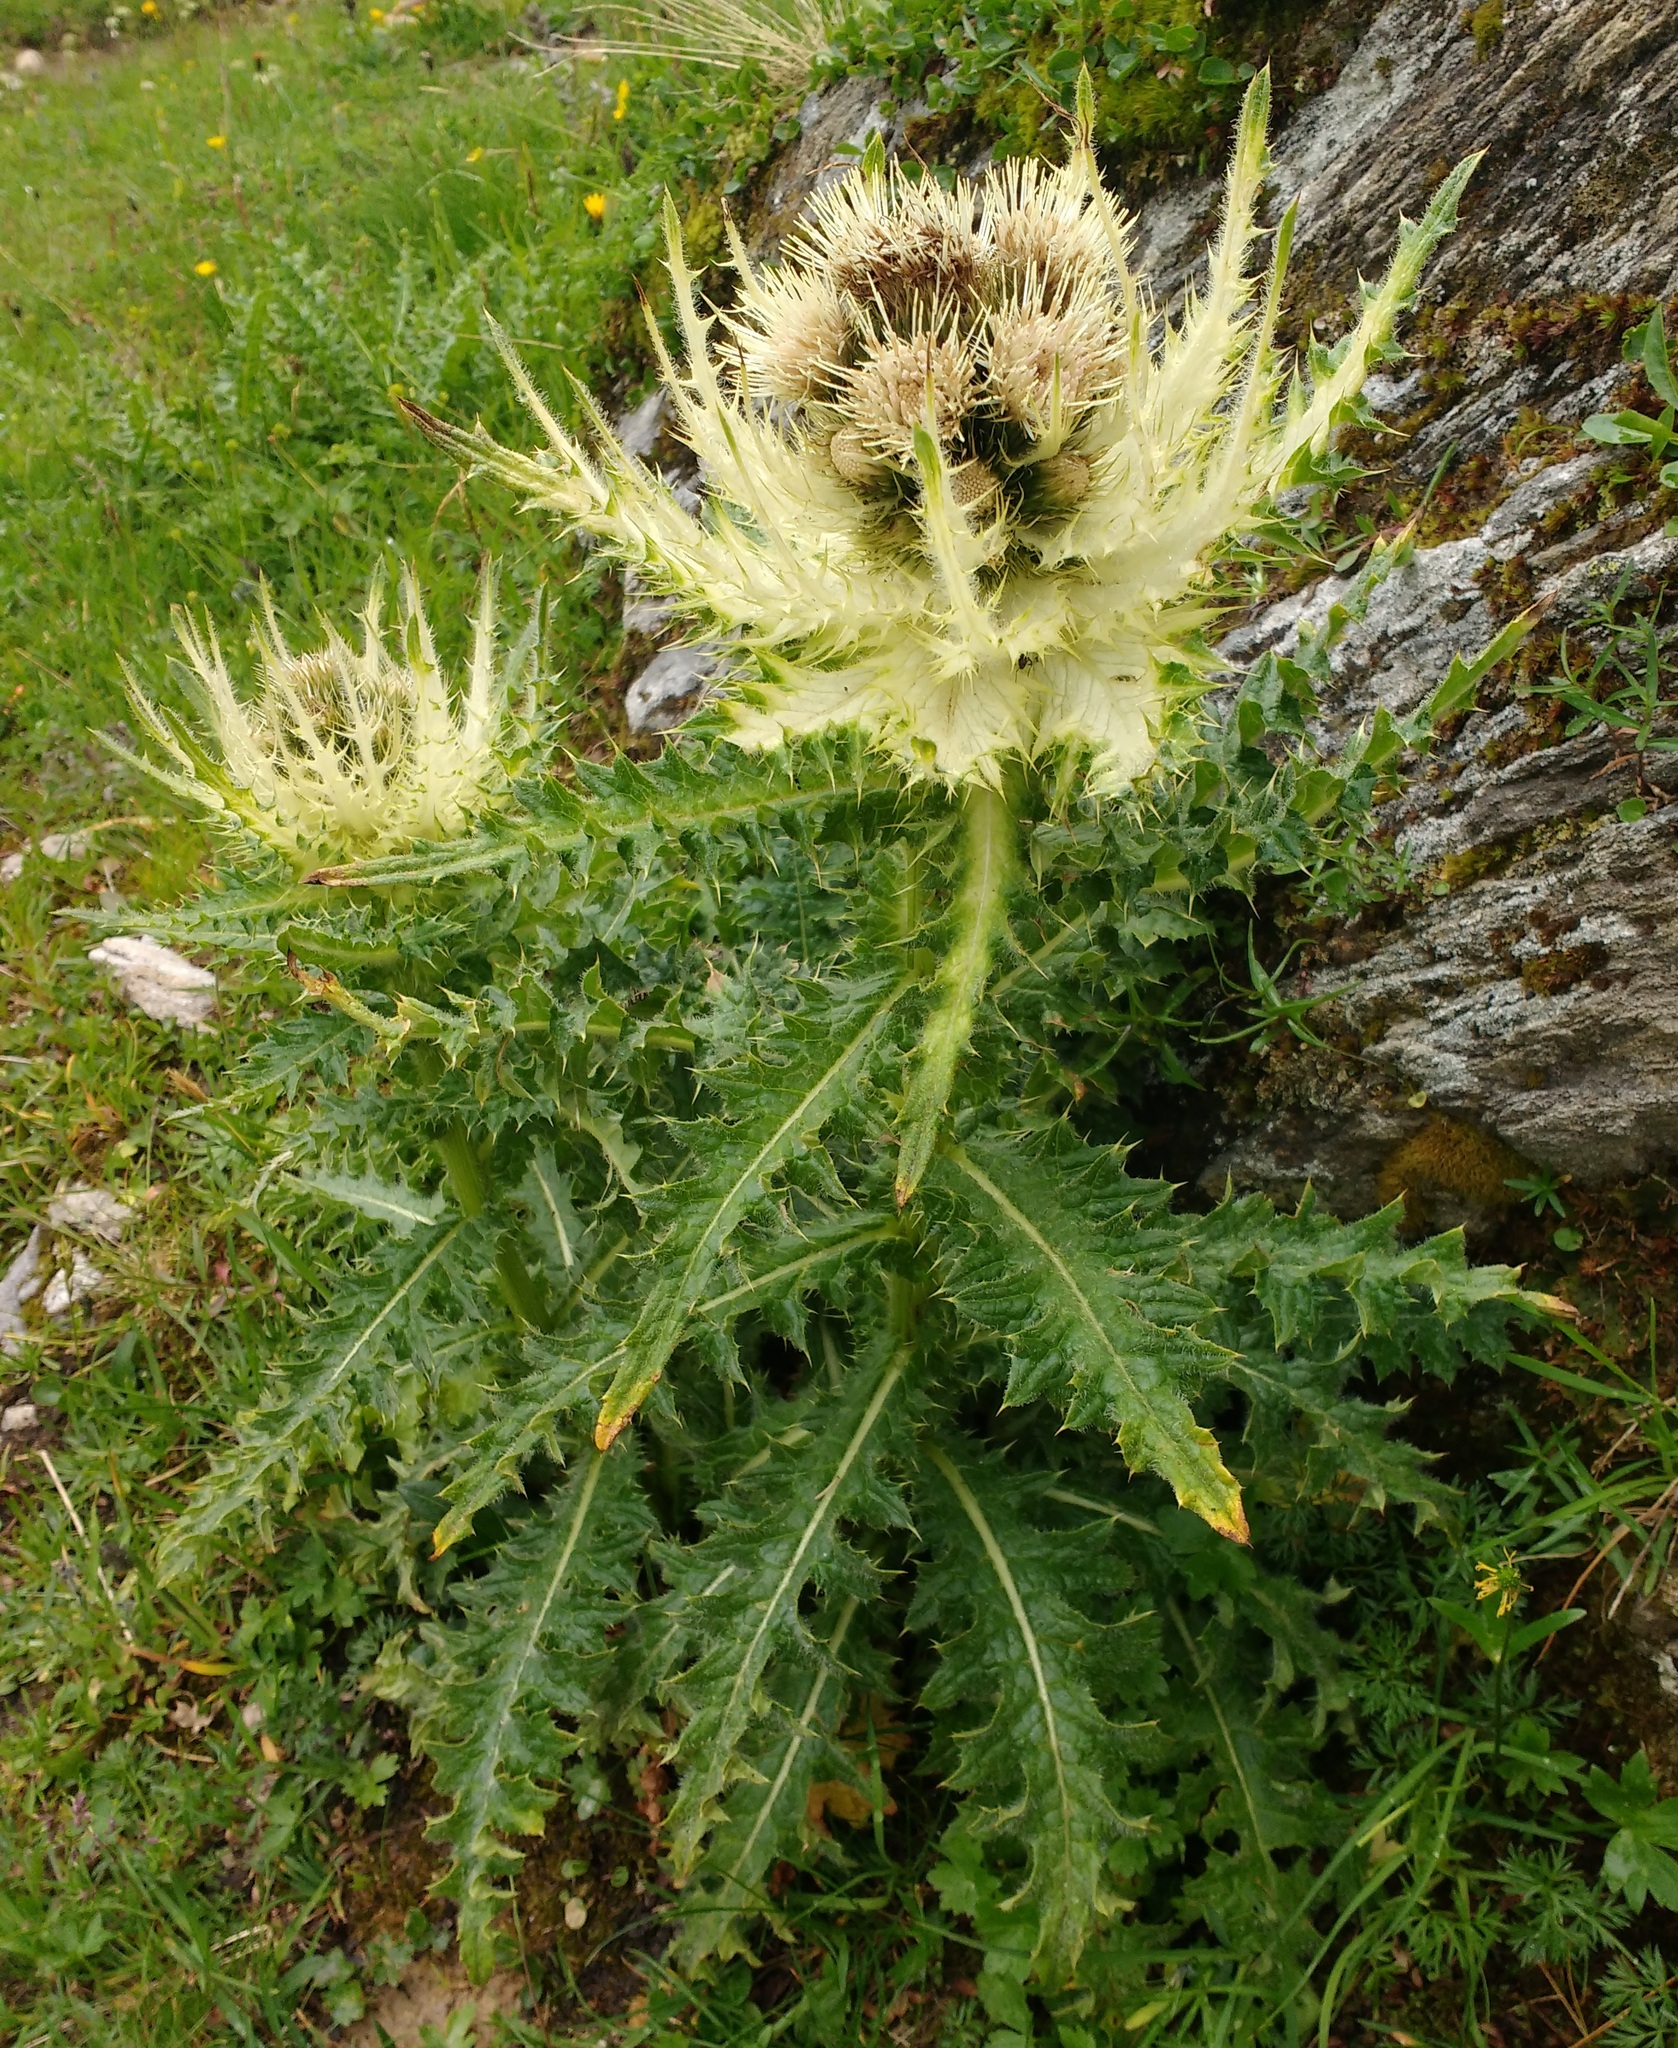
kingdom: Plantae
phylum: Tracheophyta
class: Magnoliopsida
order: Asterales
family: Asteraceae
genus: Cirsium
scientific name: Cirsium spinosissimum
